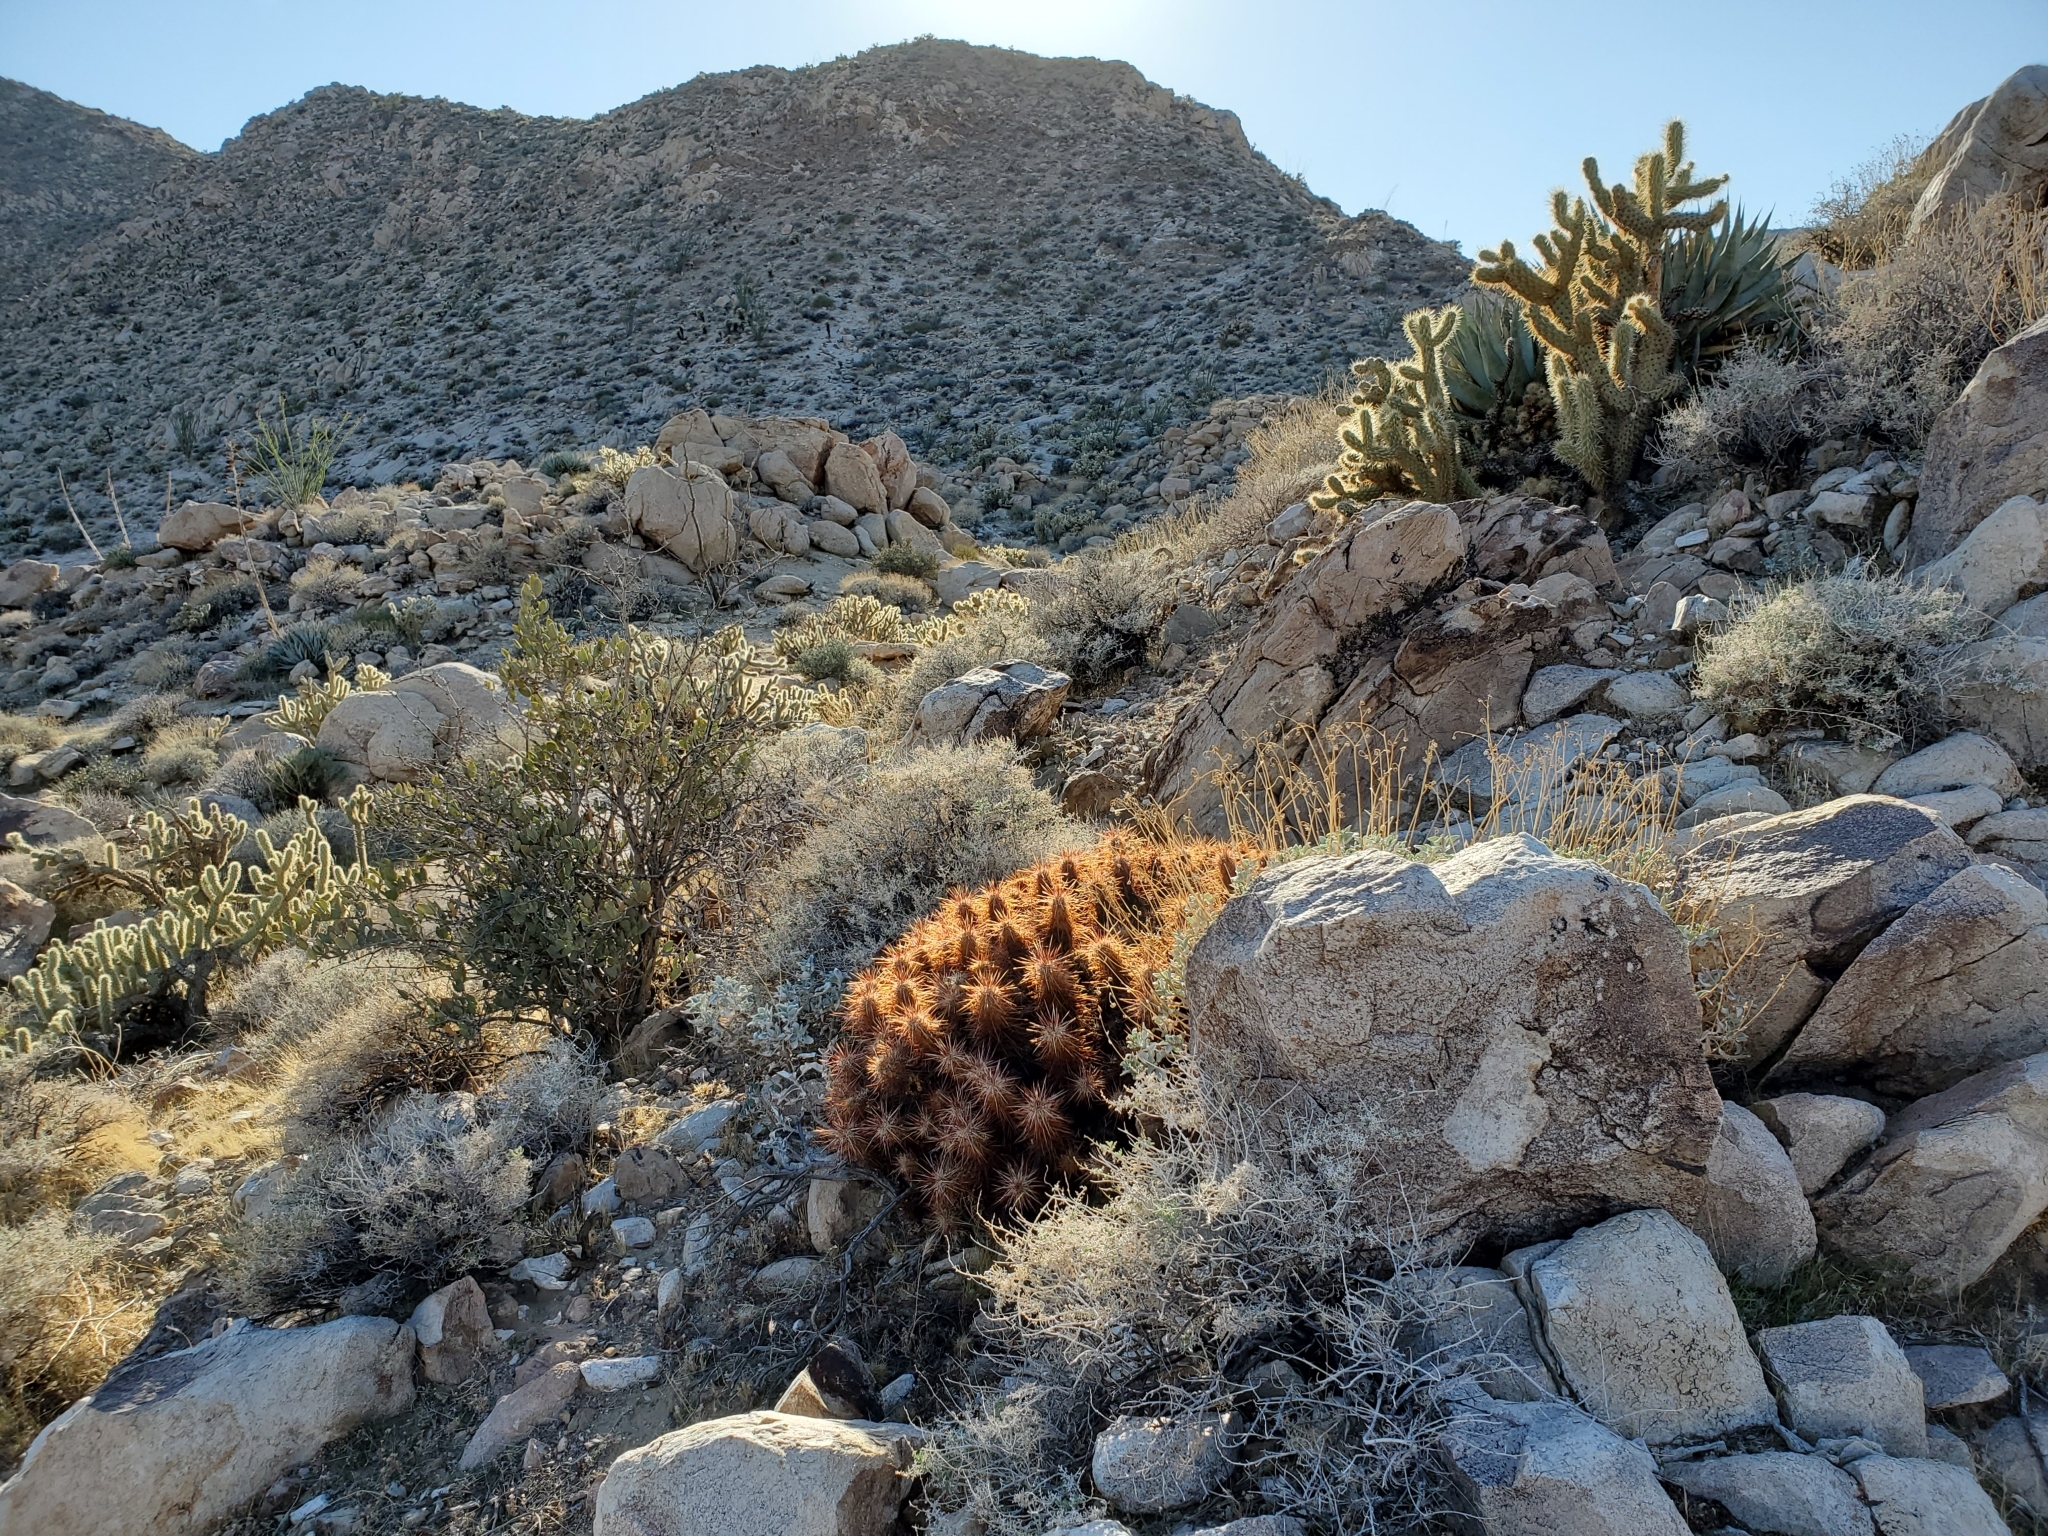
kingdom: Plantae
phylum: Tracheophyta
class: Magnoliopsida
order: Caryophyllales
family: Cactaceae
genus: Echinocereus
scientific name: Echinocereus engelmannii
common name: Engelmann's hedgehog cactus
